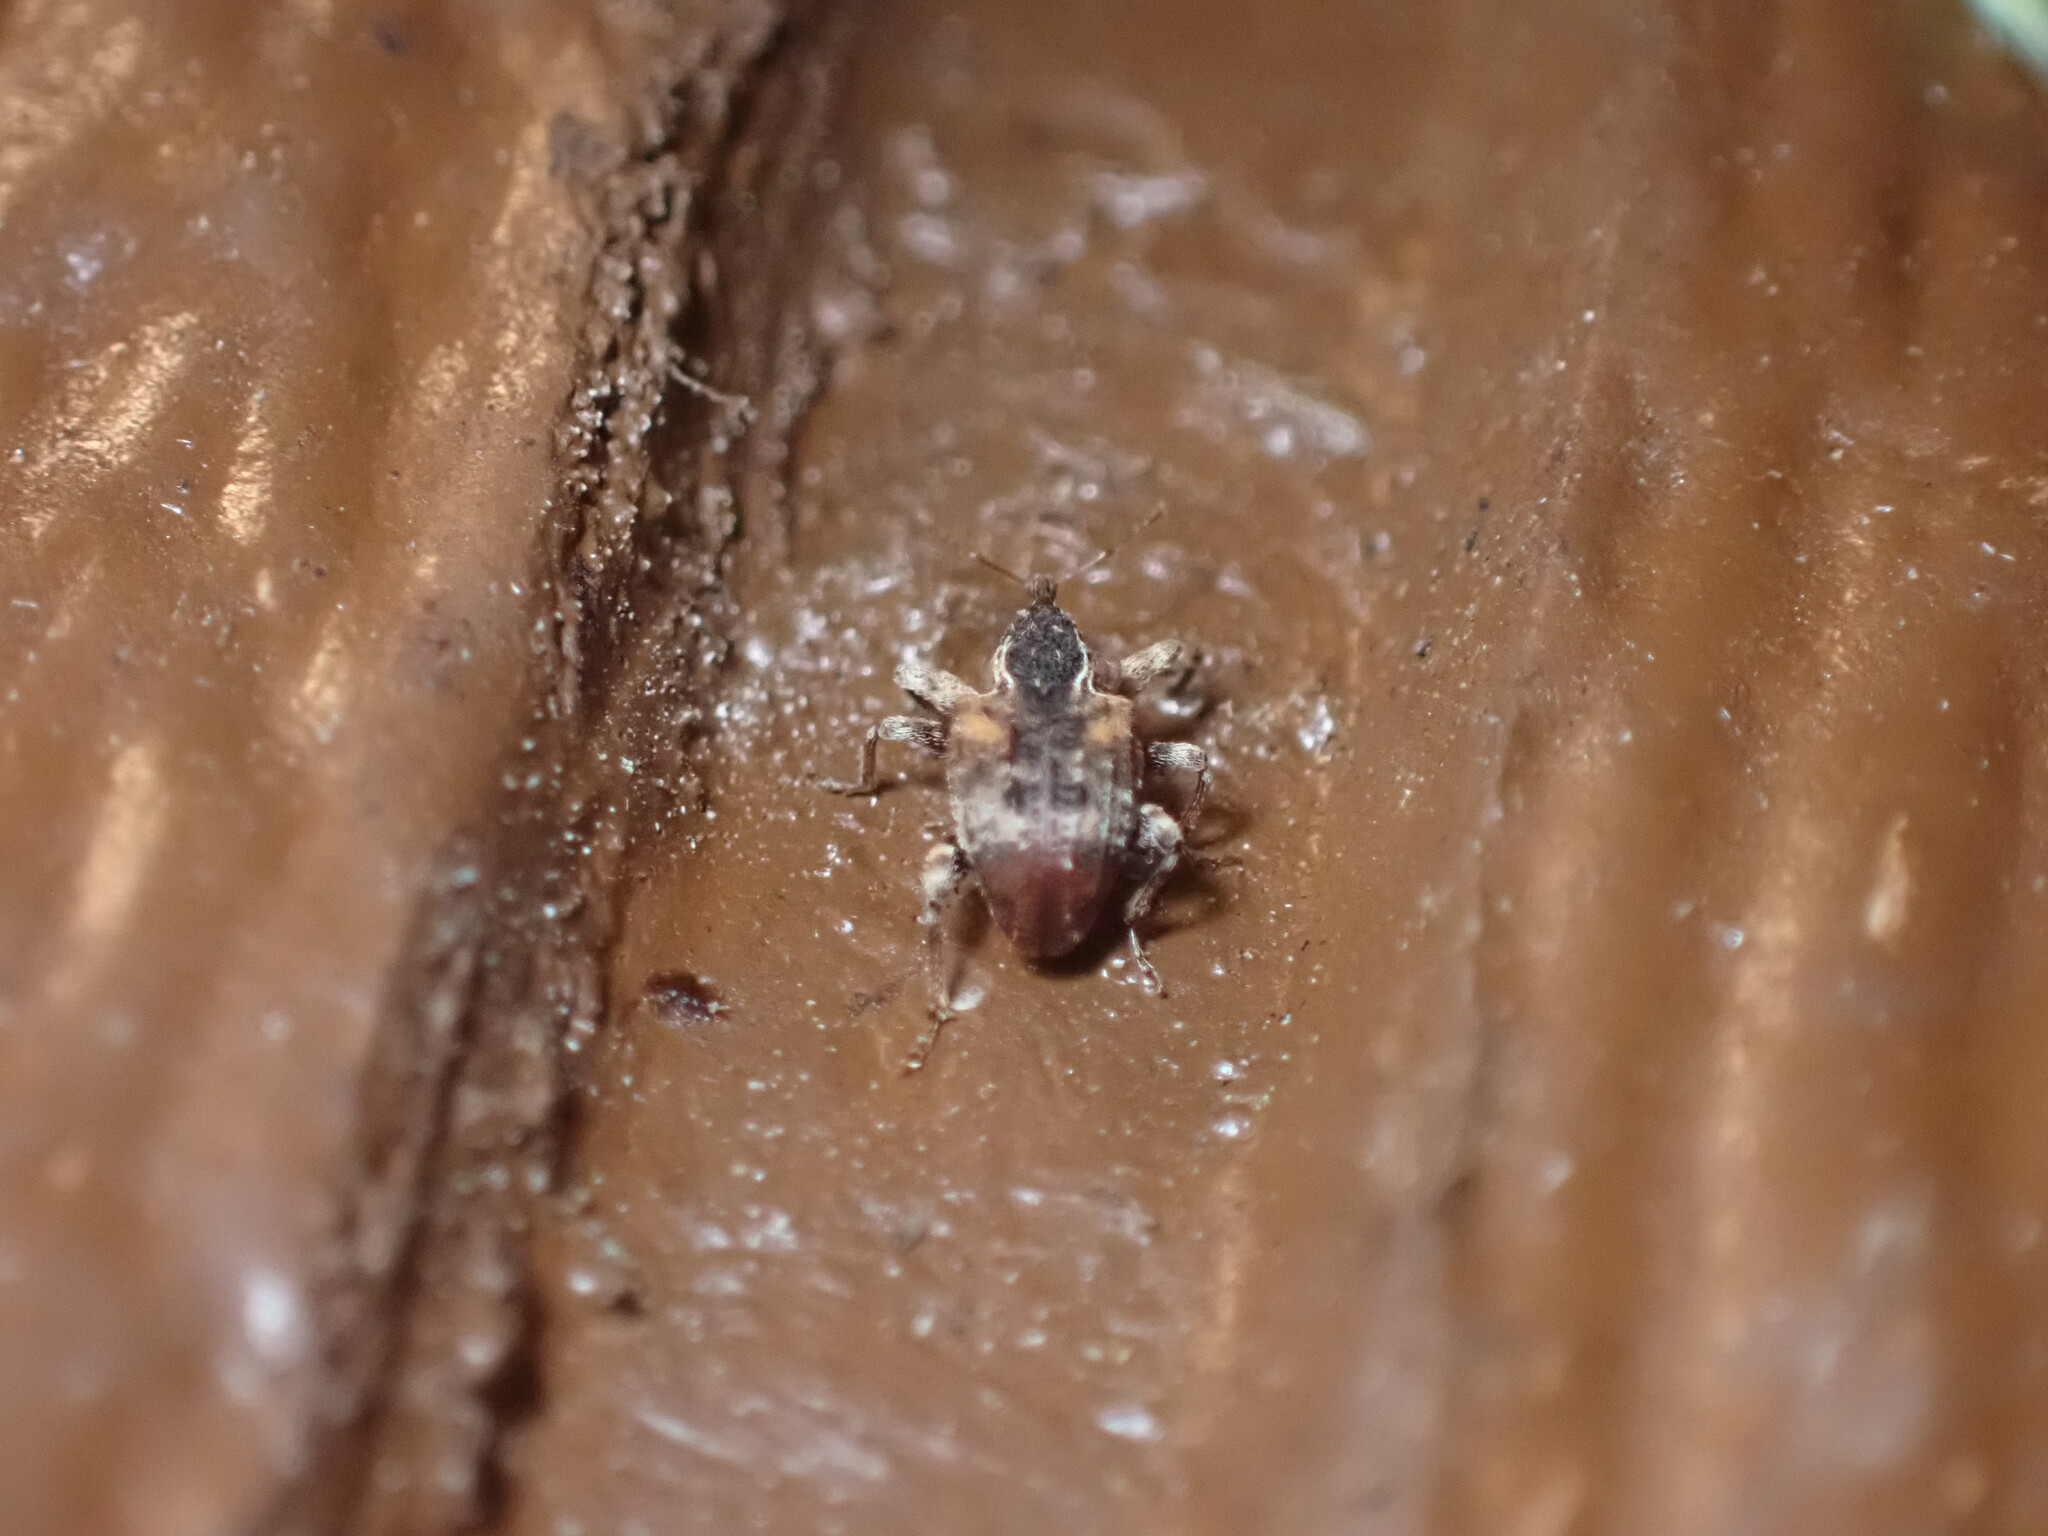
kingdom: Animalia
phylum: Arthropoda
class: Insecta
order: Coleoptera
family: Curculionidae
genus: Conotrachelus
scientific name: Conotrachelus anaglypticus
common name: Cambium curculio
